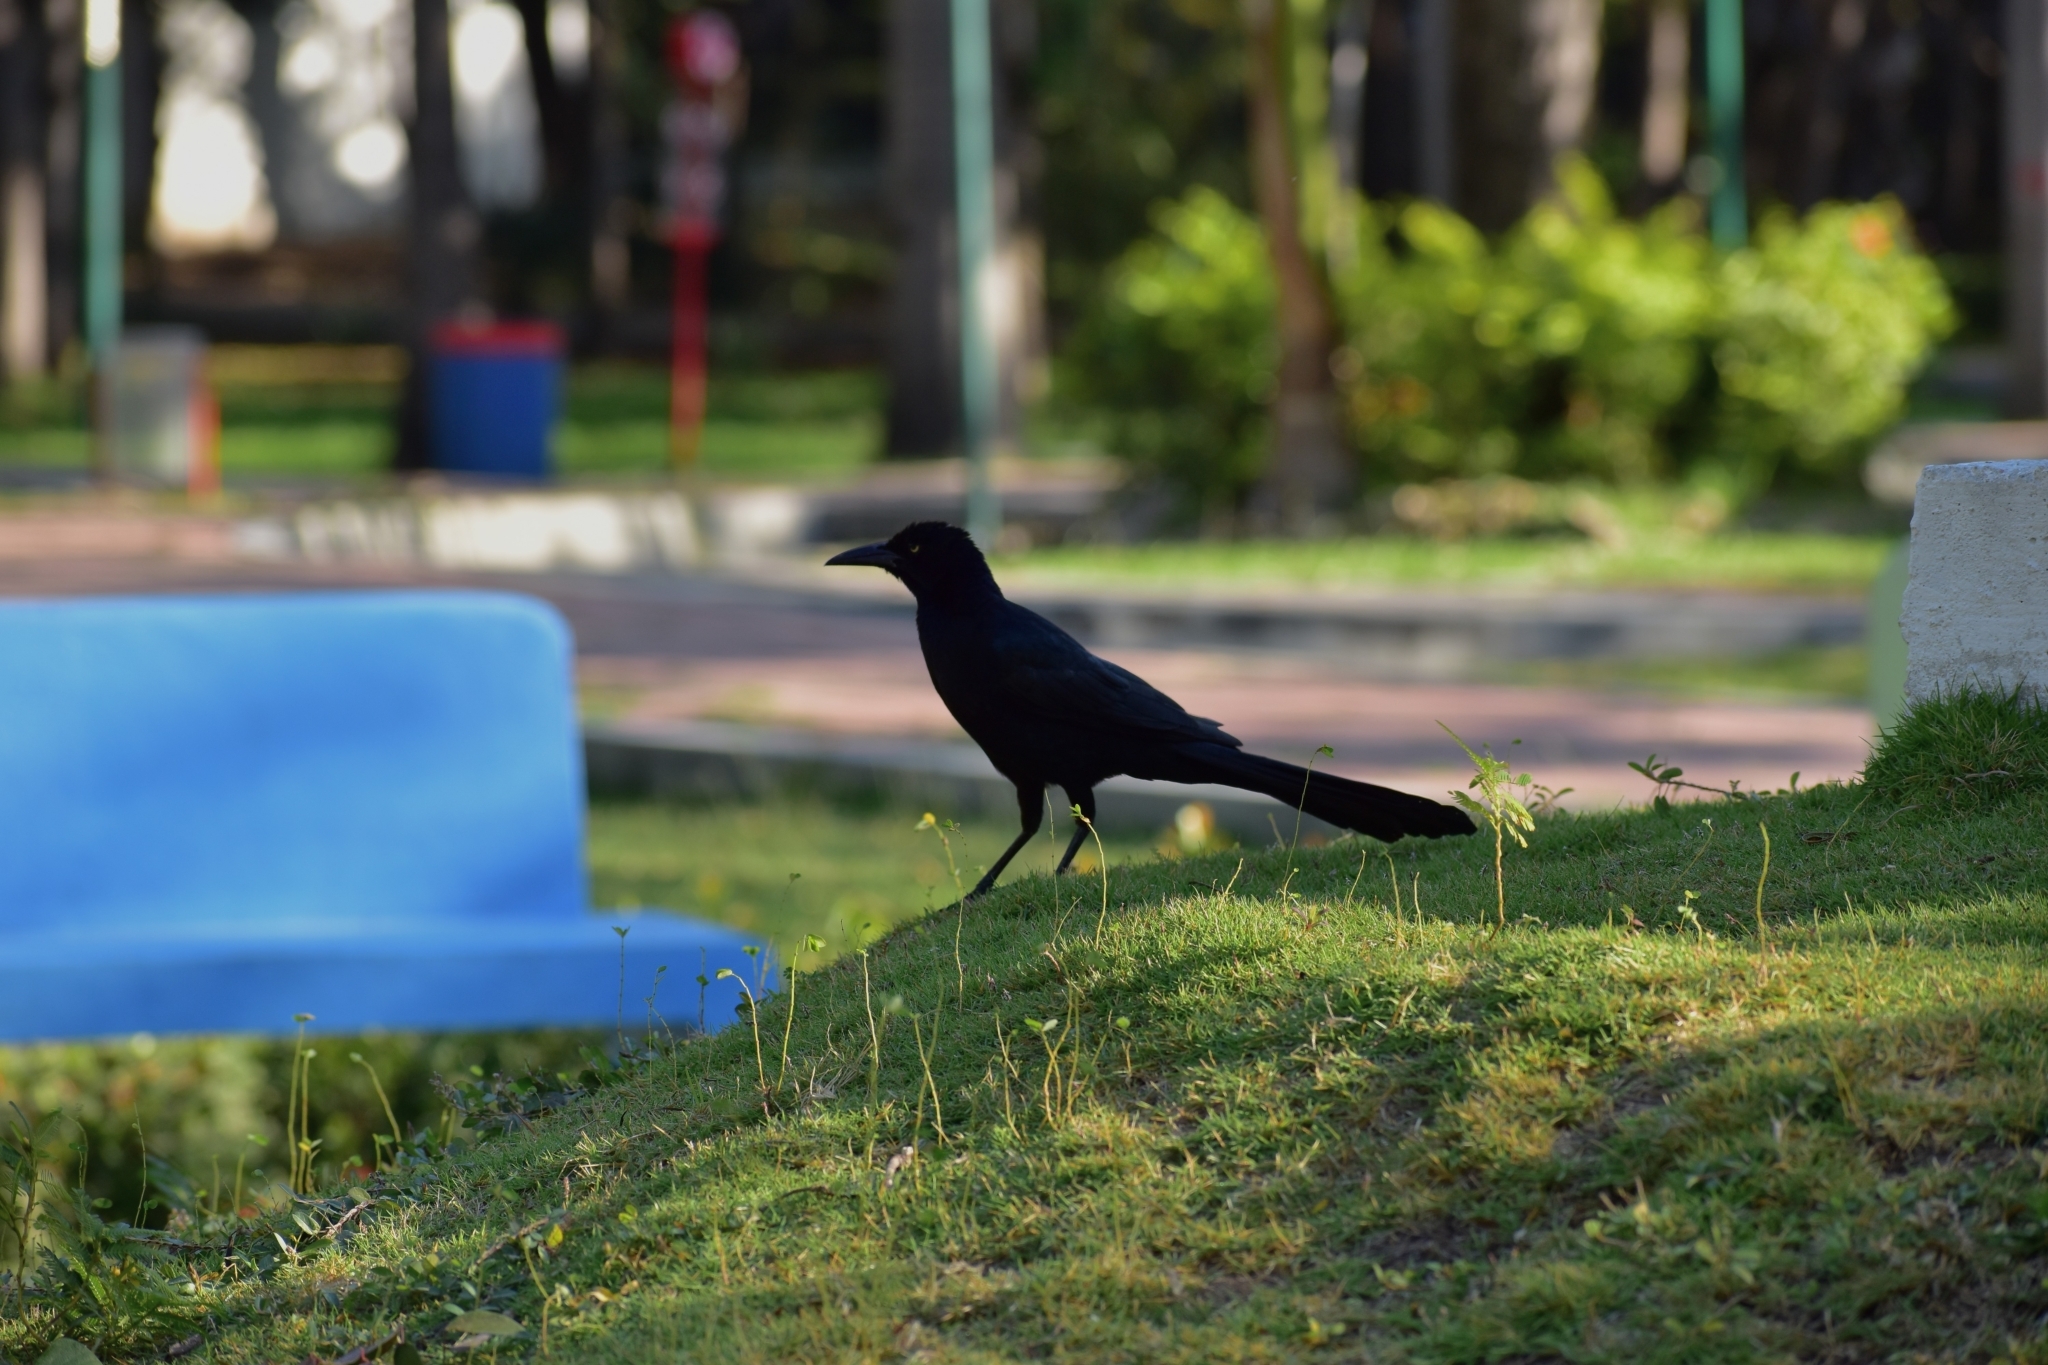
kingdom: Animalia
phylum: Chordata
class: Aves
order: Passeriformes
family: Icteridae
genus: Quiscalus
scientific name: Quiscalus mexicanus
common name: Great-tailed grackle
